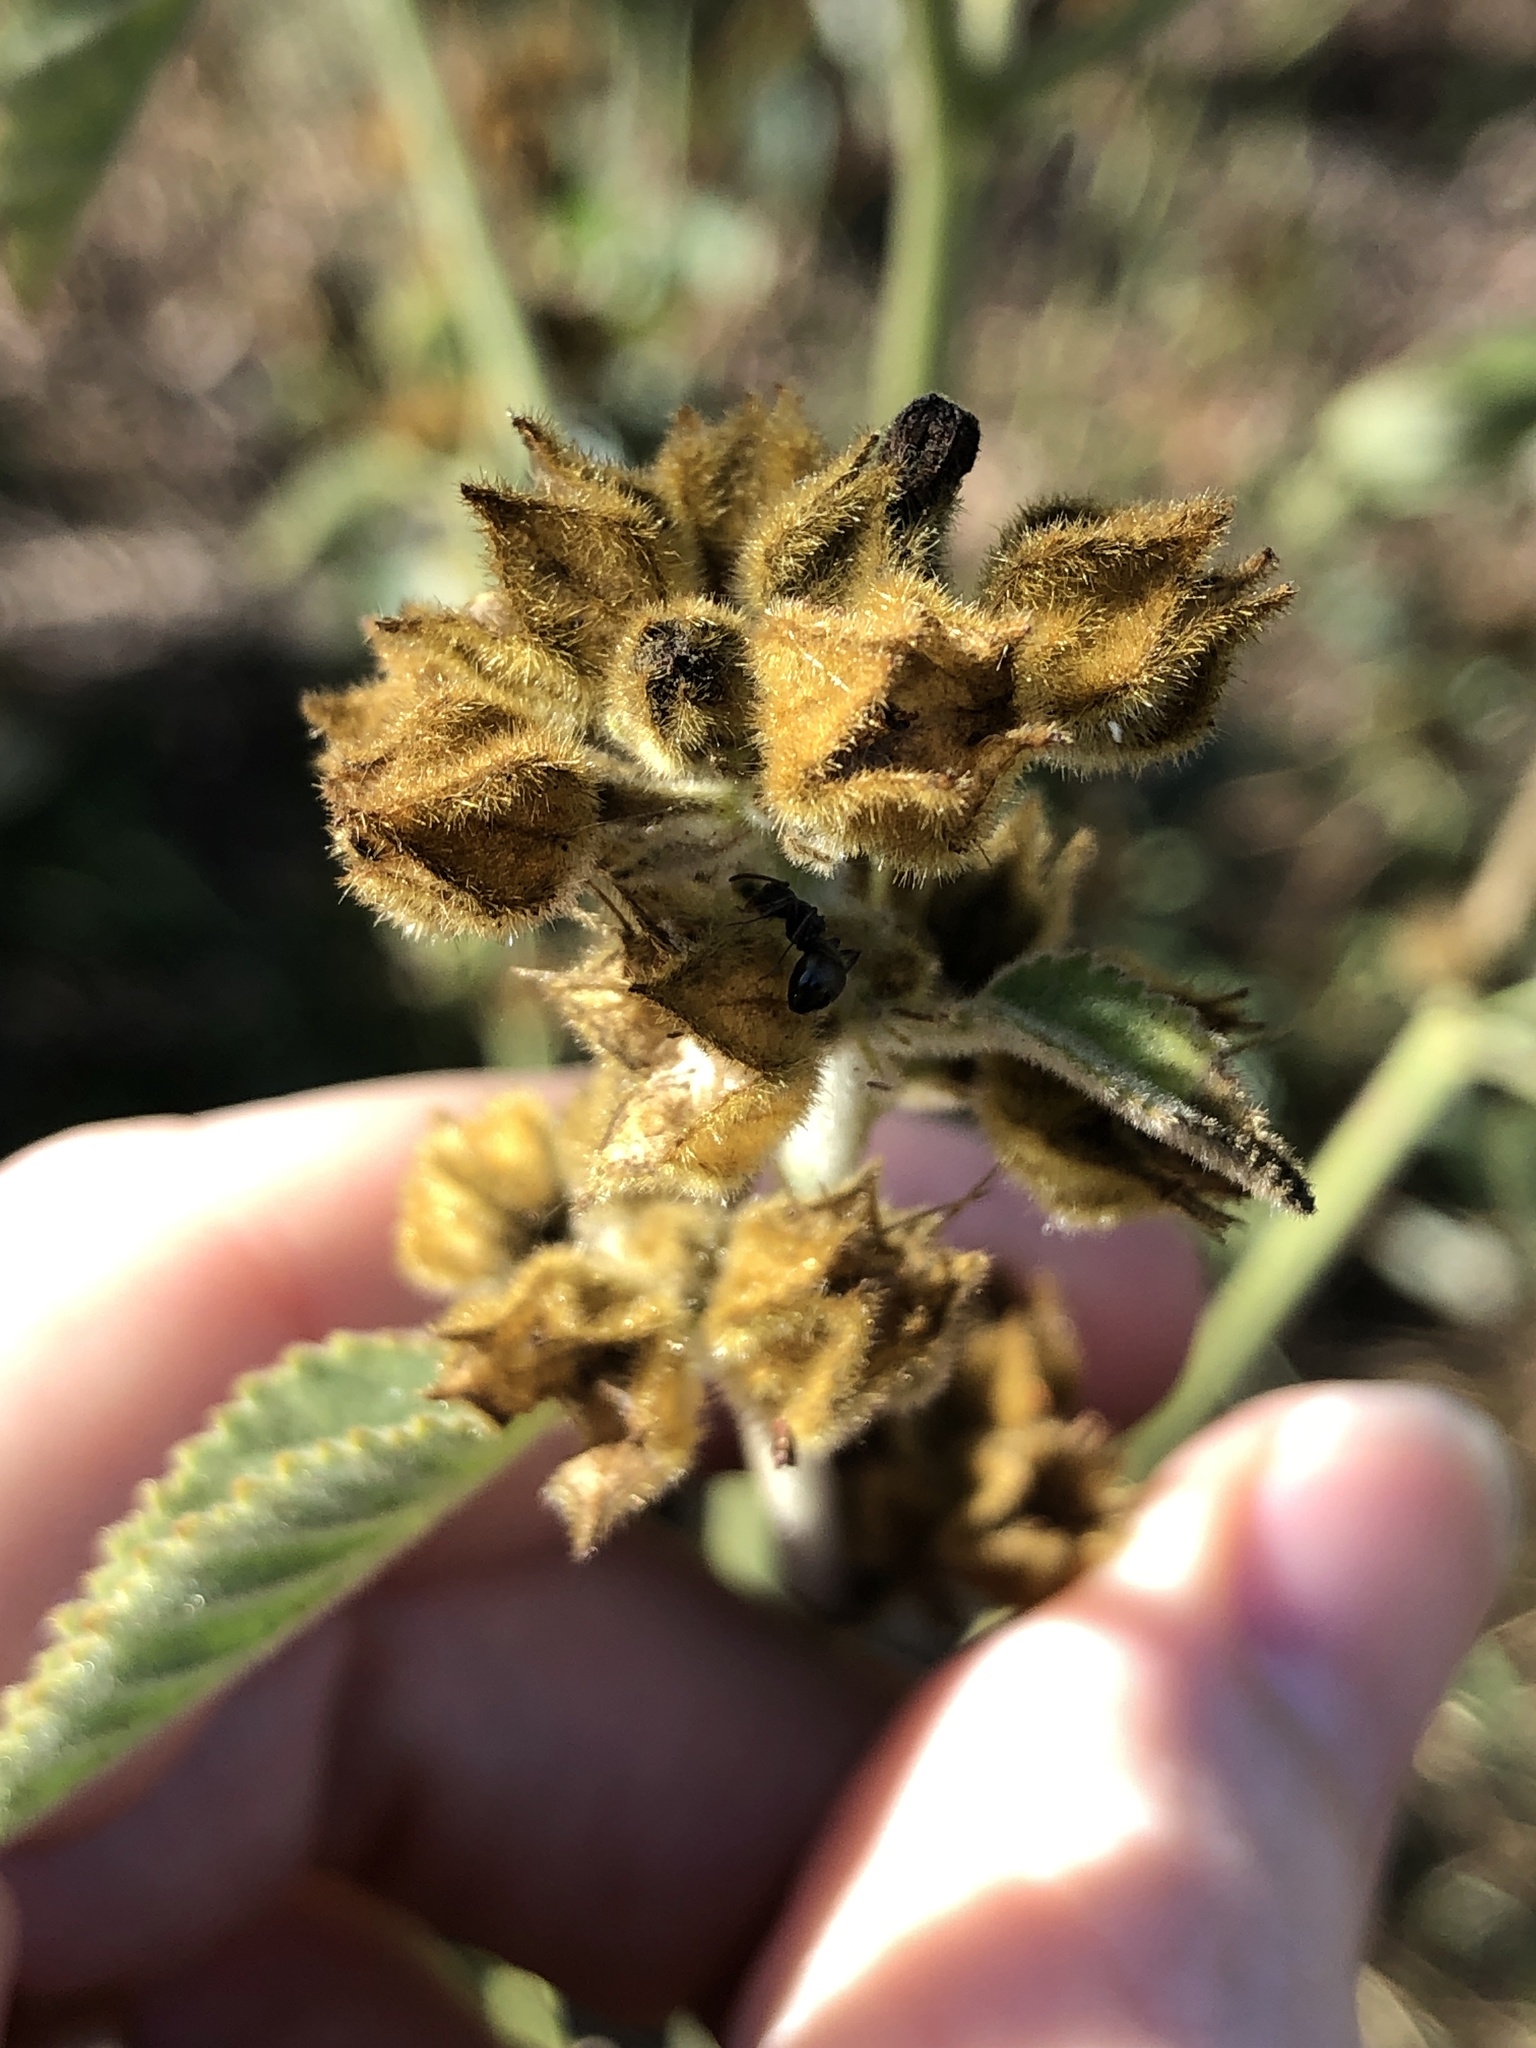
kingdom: Plantae
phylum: Tracheophyta
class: Magnoliopsida
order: Malvales
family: Malvaceae
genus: Sida
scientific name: Sida cordifolia
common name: Ilima
